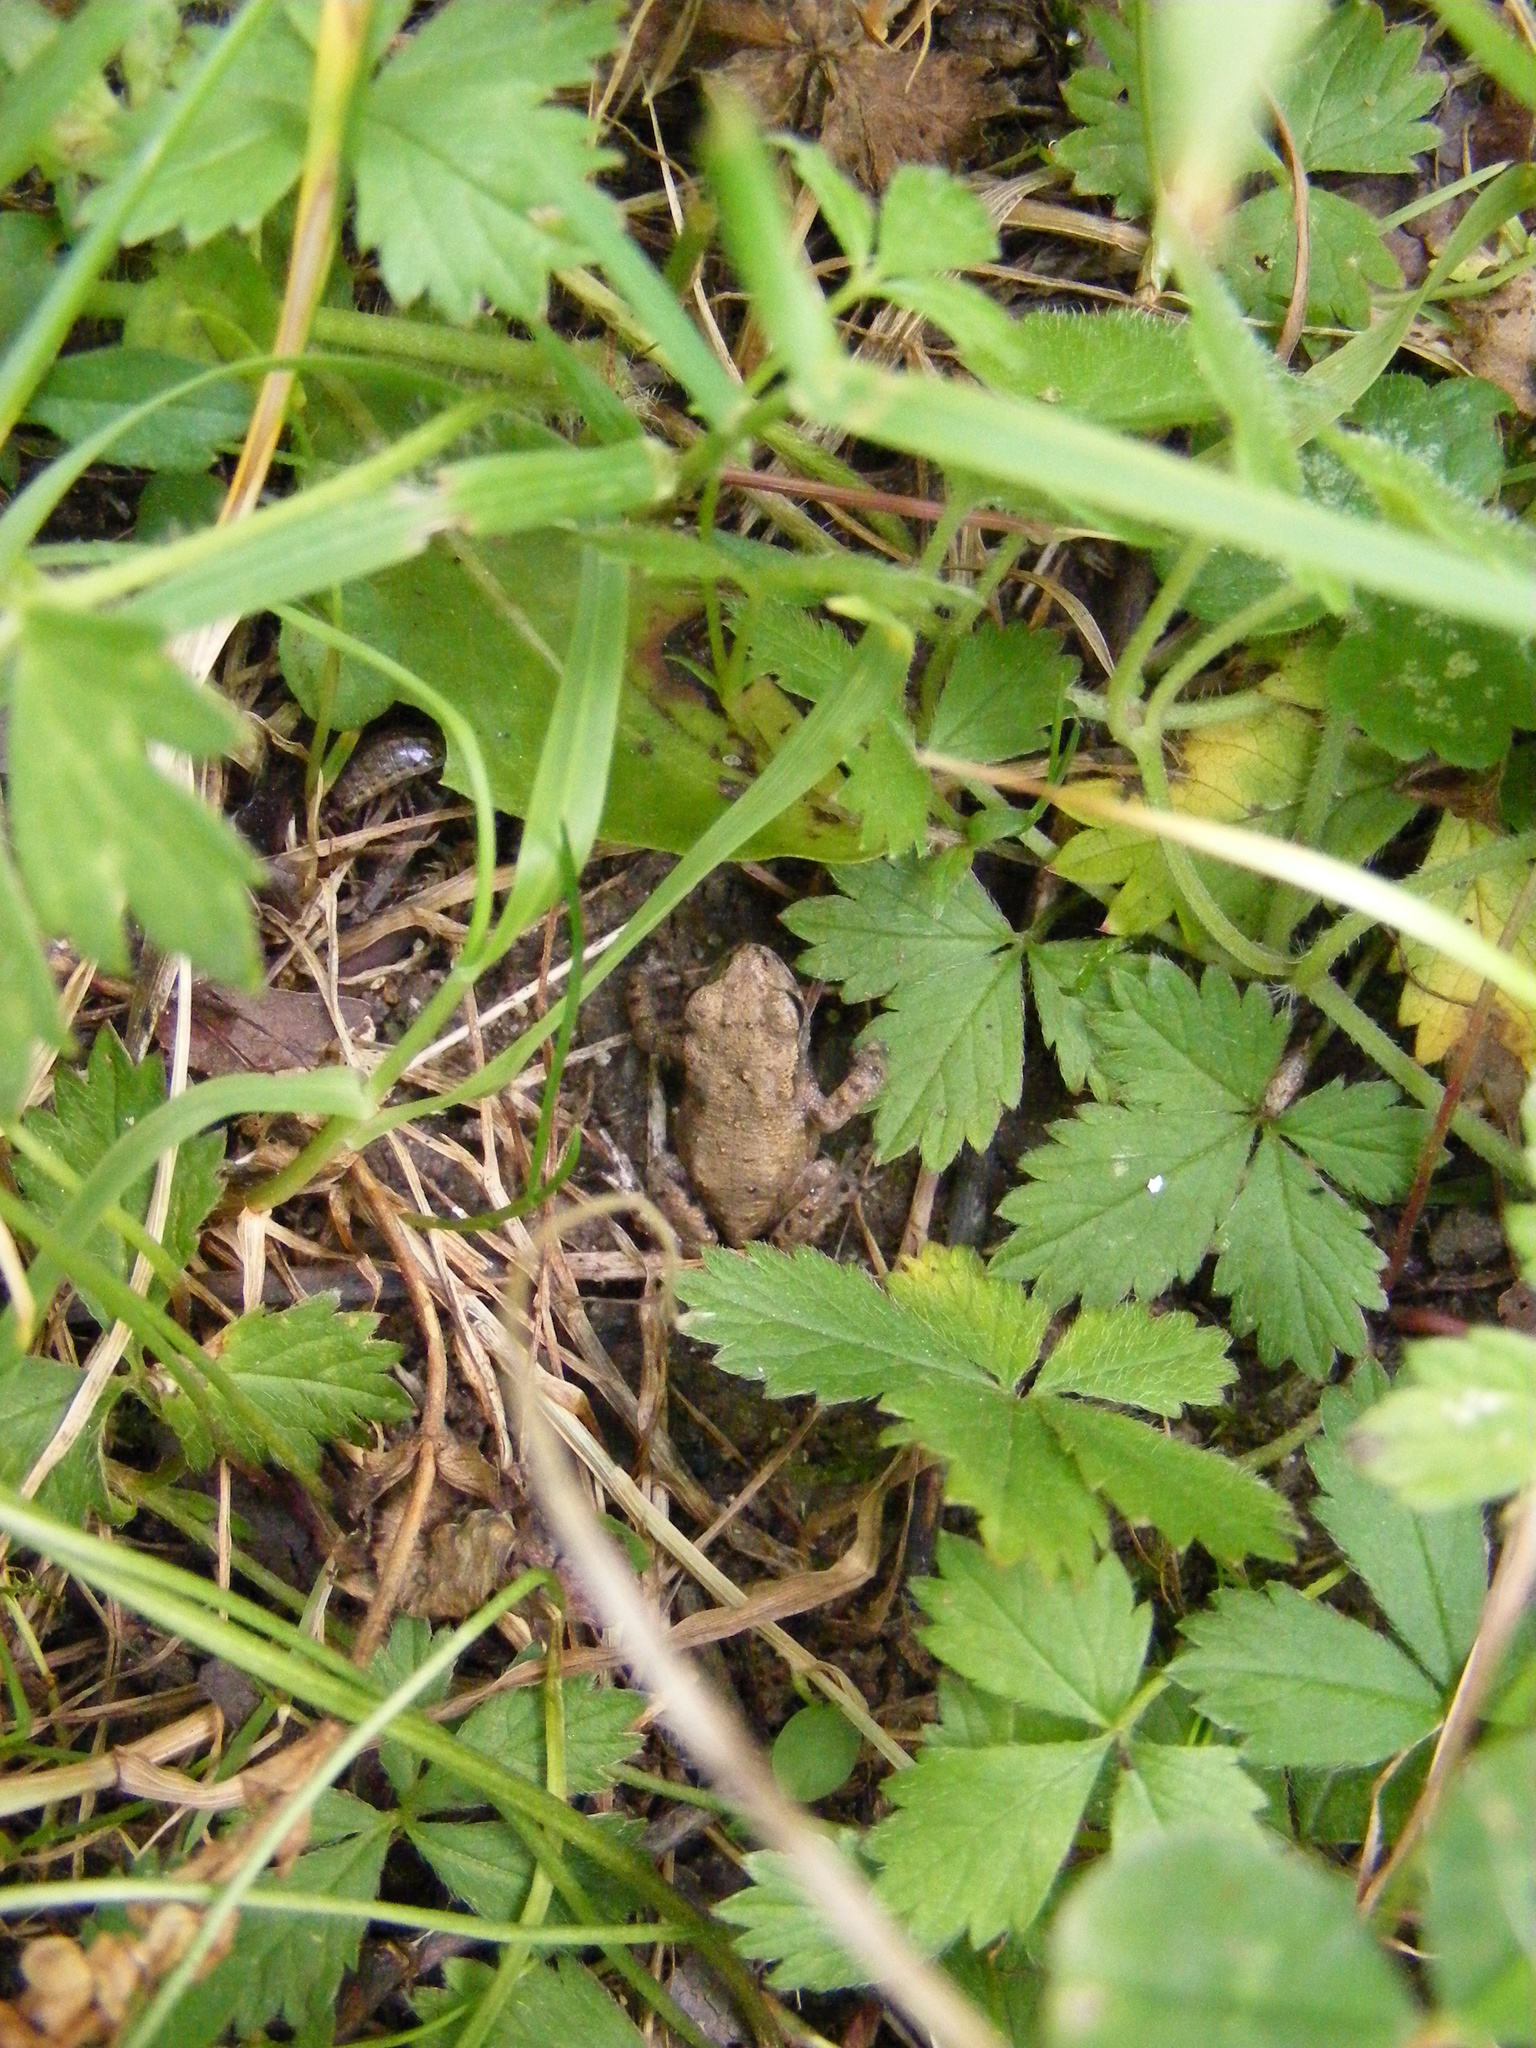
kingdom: Animalia
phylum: Chordata
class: Amphibia
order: Anura
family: Bufonidae
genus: Bufo
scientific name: Bufo bufo
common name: Common toad
